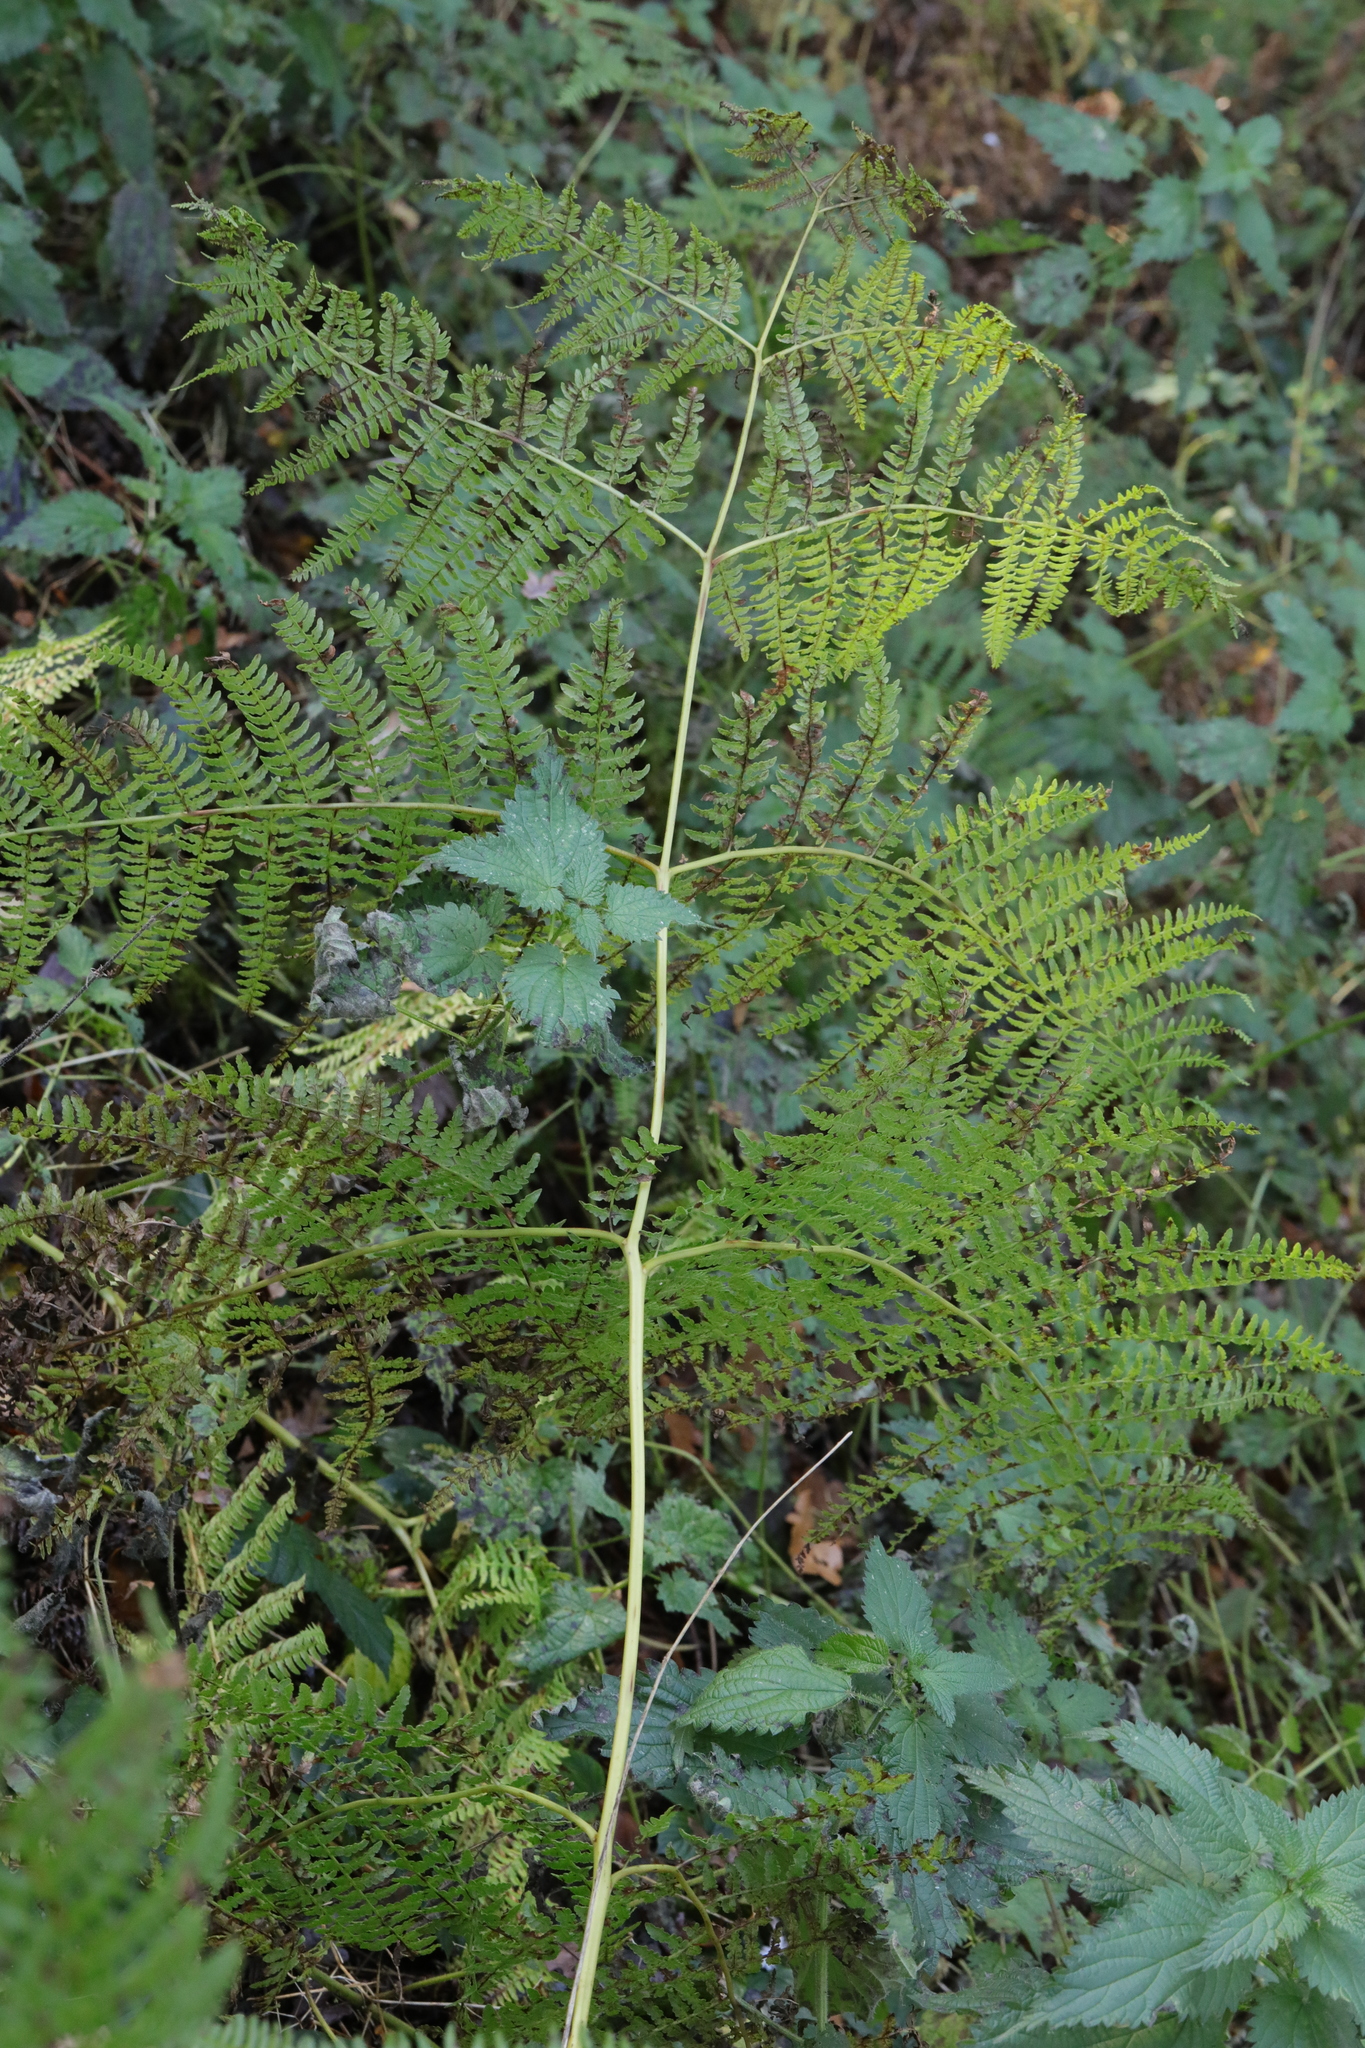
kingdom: Plantae
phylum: Tracheophyta
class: Polypodiopsida
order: Polypodiales
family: Dennstaedtiaceae
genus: Pteridium
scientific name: Pteridium aquilinum
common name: Bracken
